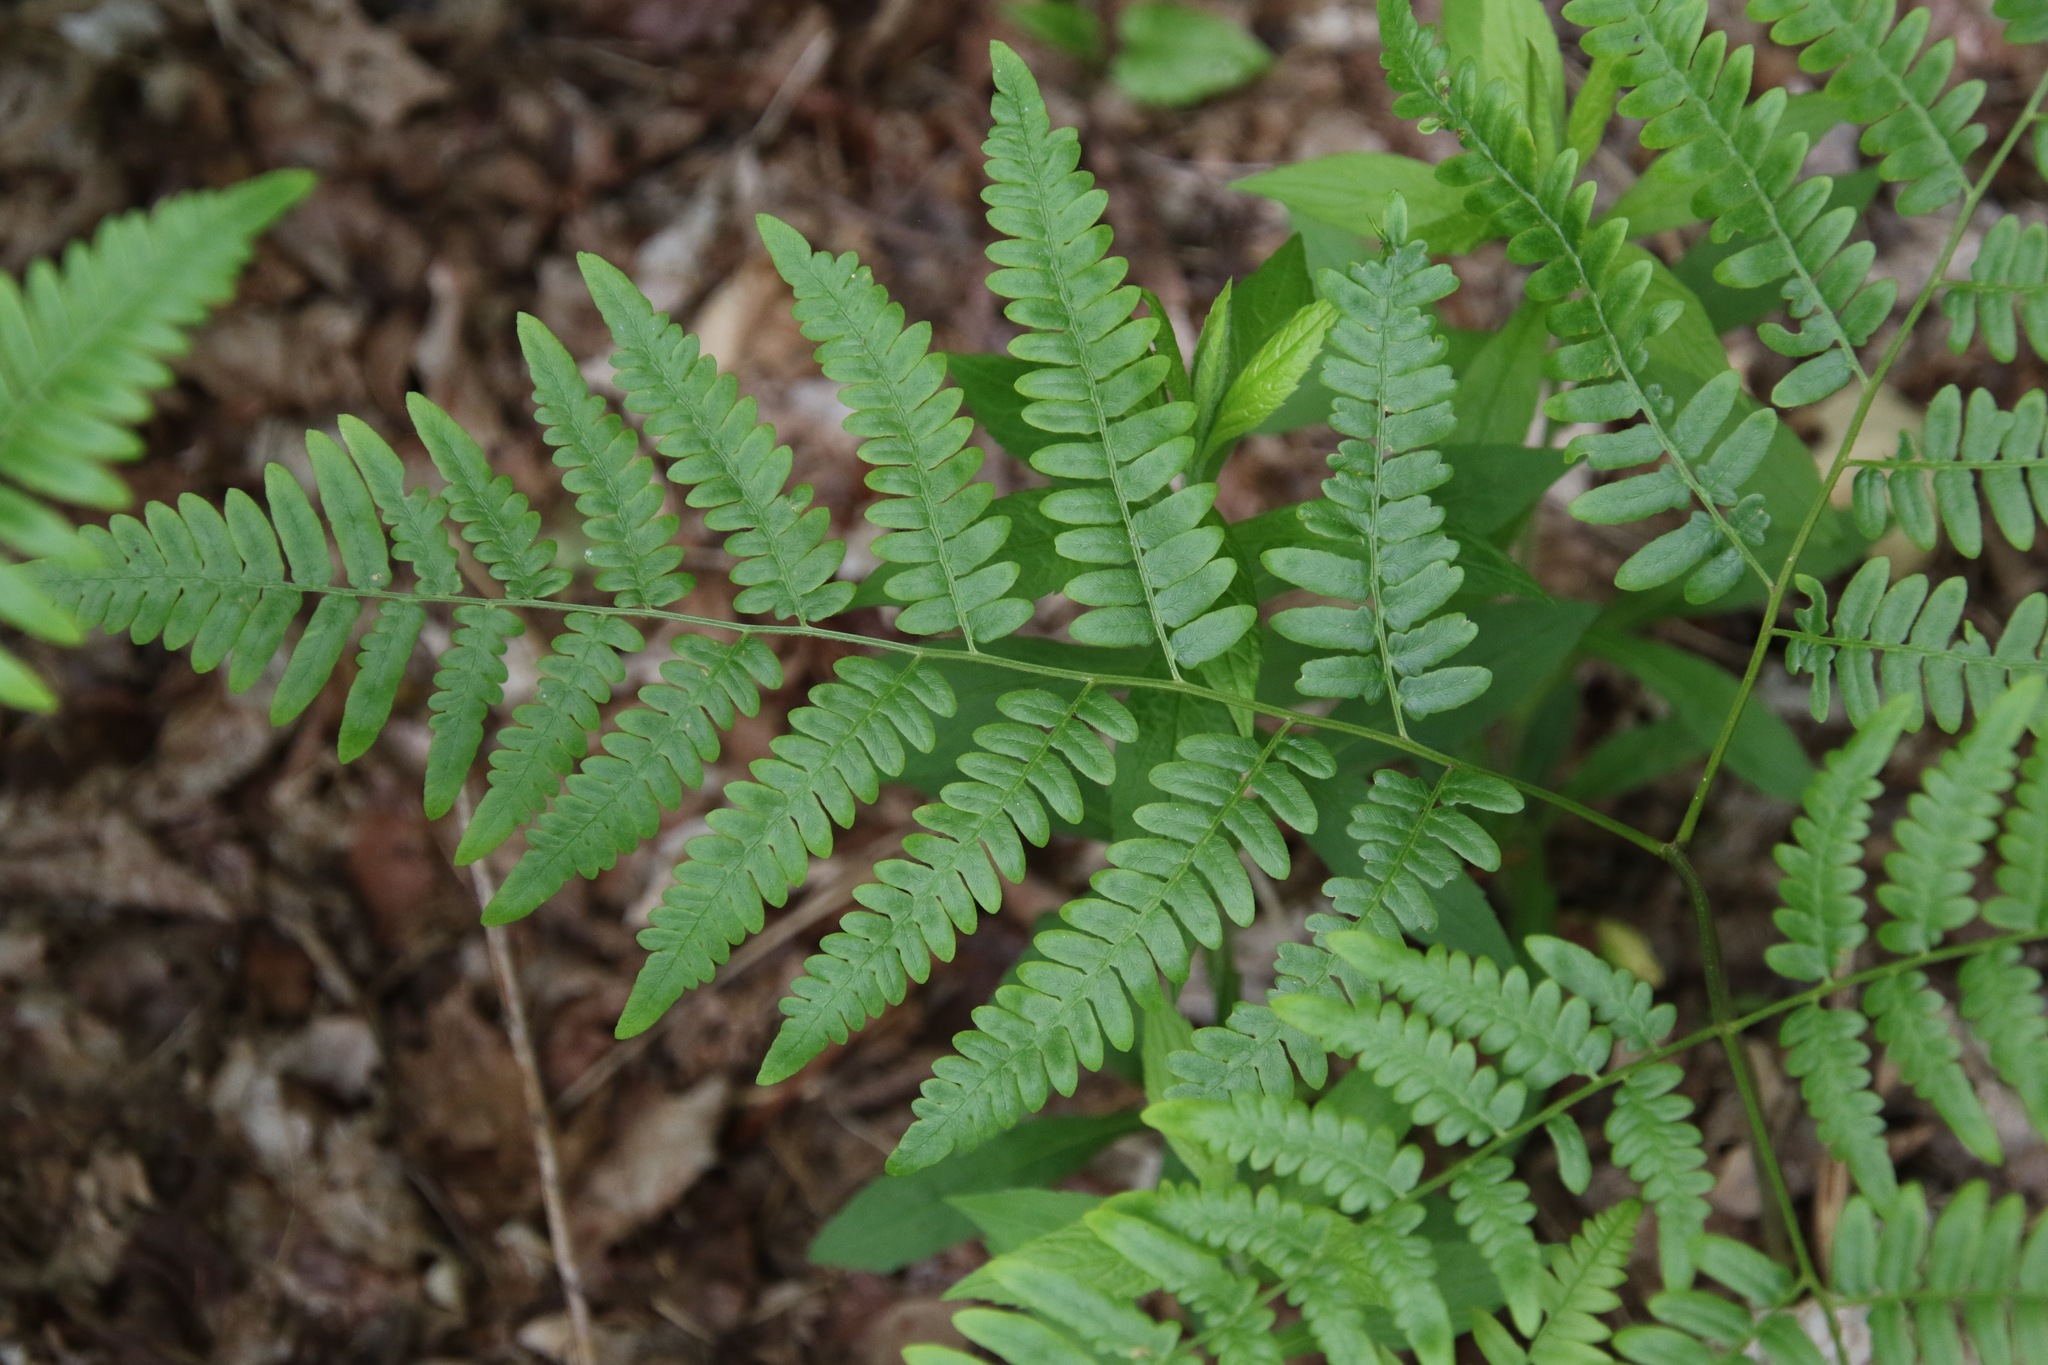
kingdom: Plantae
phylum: Tracheophyta
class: Polypodiopsida
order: Polypodiales
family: Dennstaedtiaceae
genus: Pteridium
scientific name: Pteridium aquilinum
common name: Bracken
